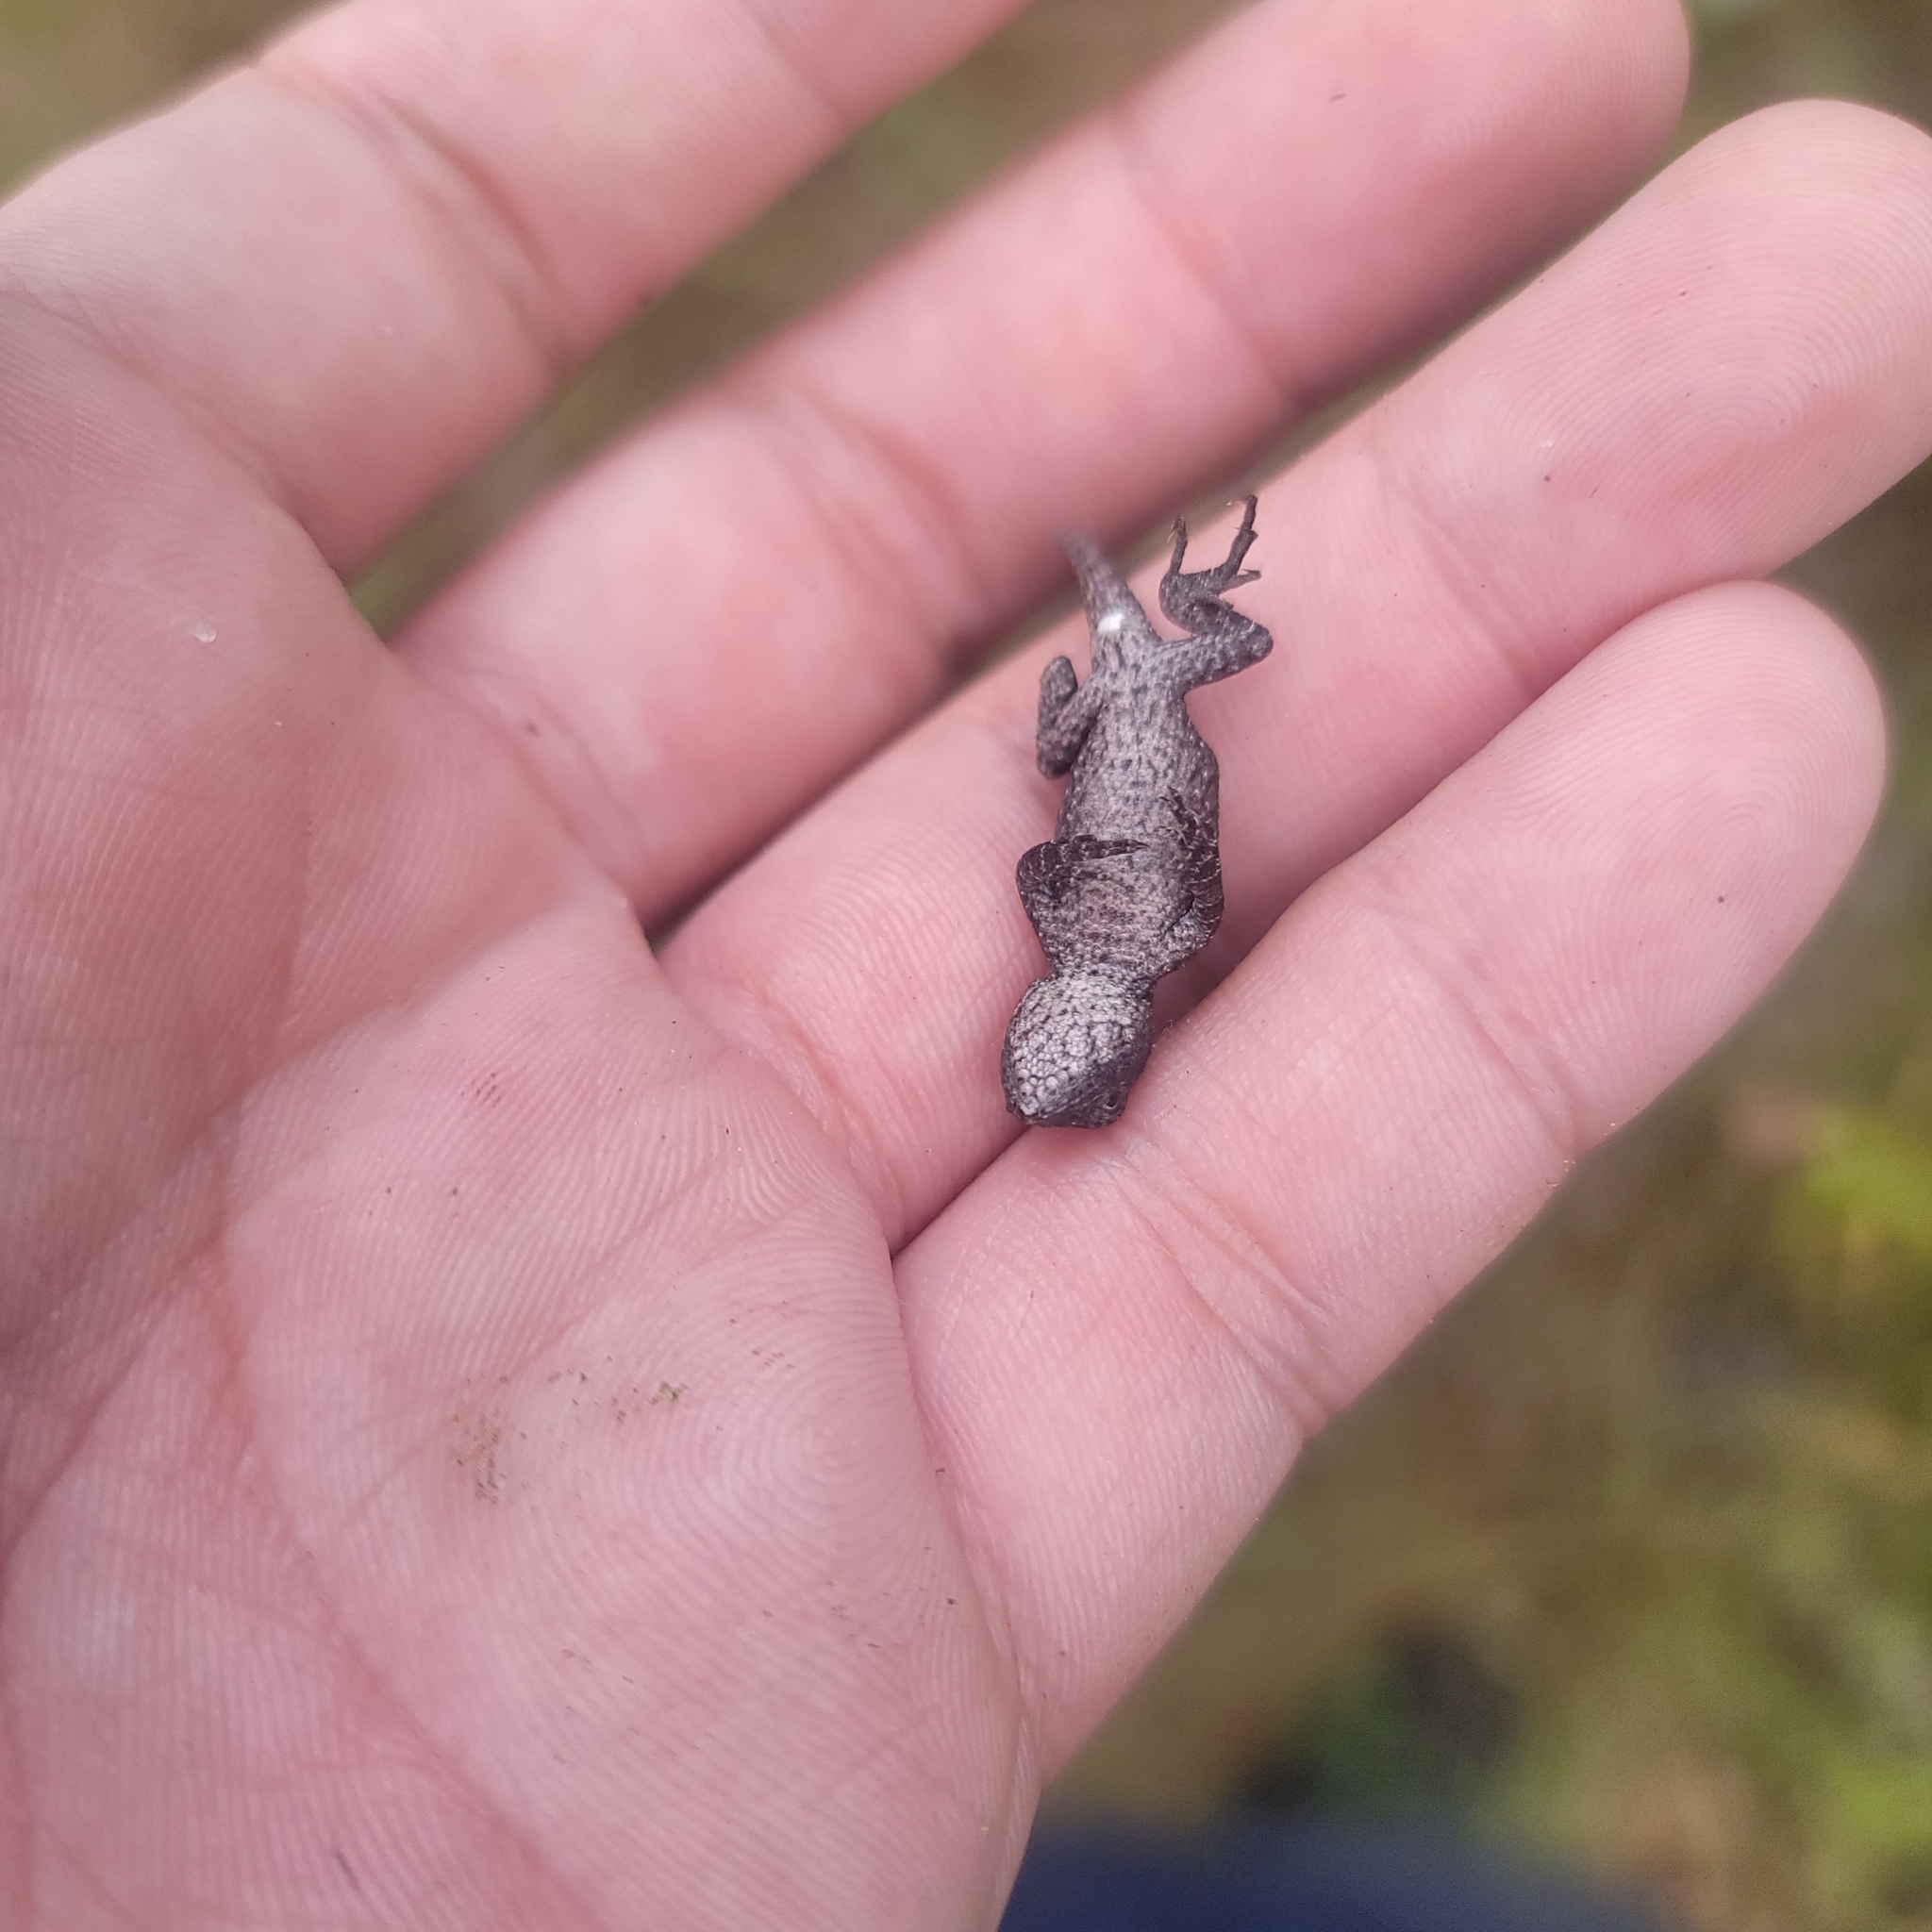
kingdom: Animalia
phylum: Chordata
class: Squamata
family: Phrynosomatidae
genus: Sceloporus
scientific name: Sceloporus undulatus
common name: Eastern fence lizard
